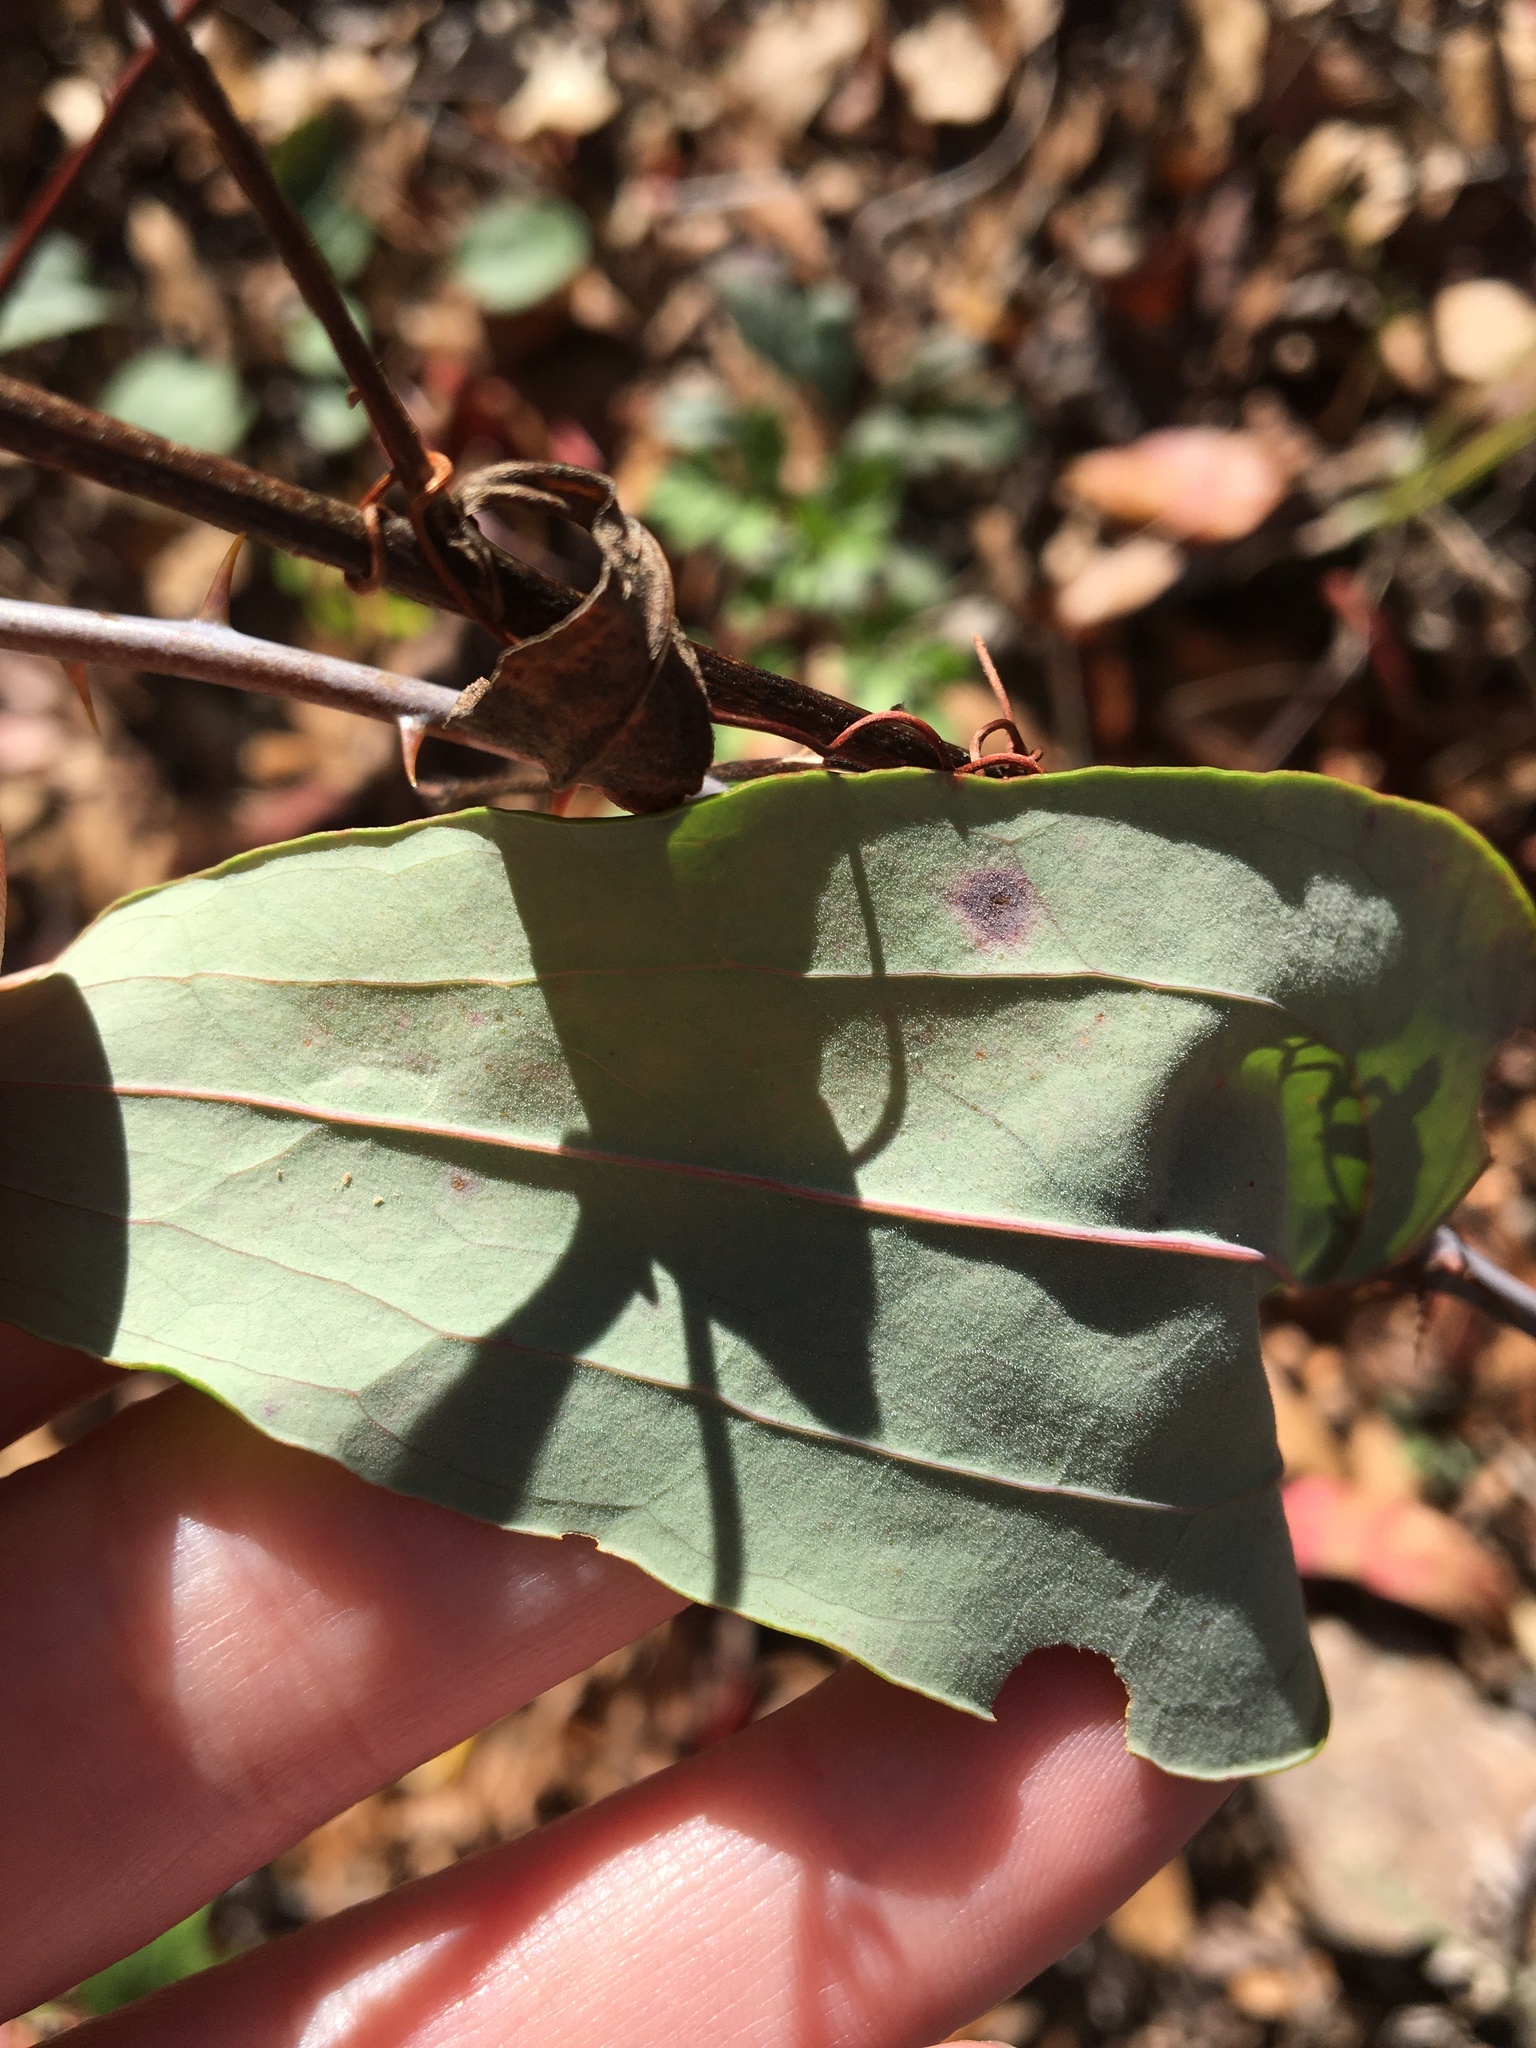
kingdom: Plantae
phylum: Tracheophyta
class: Liliopsida
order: Liliales
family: Smilacaceae
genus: Smilax
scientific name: Smilax glauca
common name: Cat greenbrier
